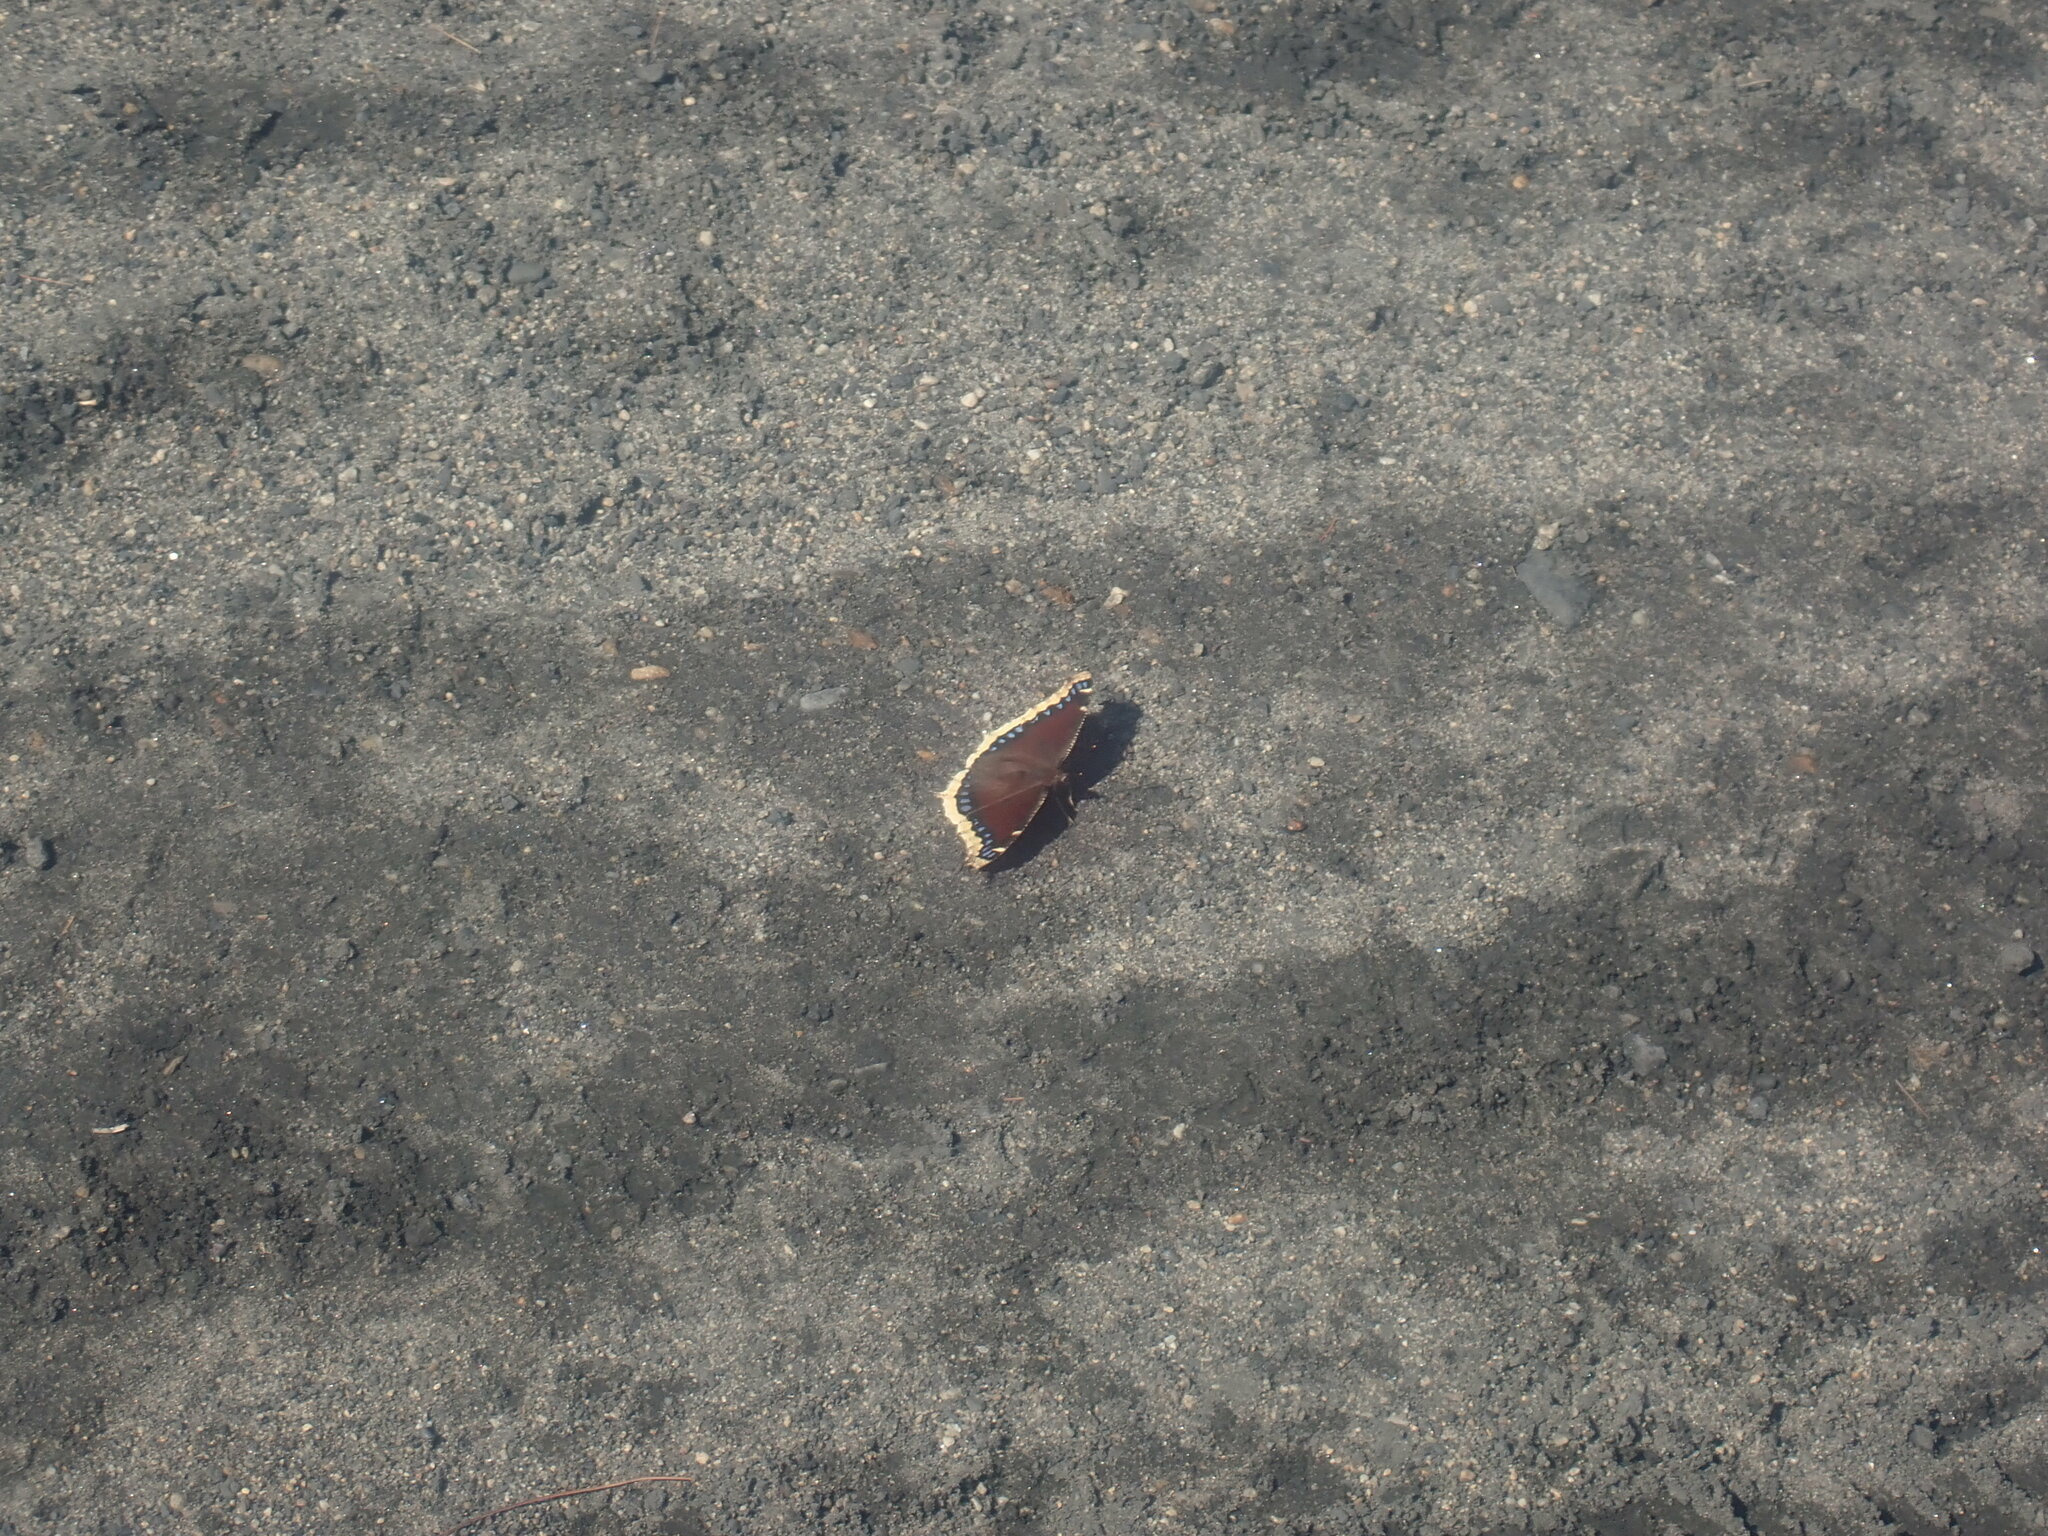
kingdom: Animalia
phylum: Arthropoda
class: Insecta
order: Lepidoptera
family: Nymphalidae
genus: Nymphalis
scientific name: Nymphalis antiopa
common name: Camberwell beauty
